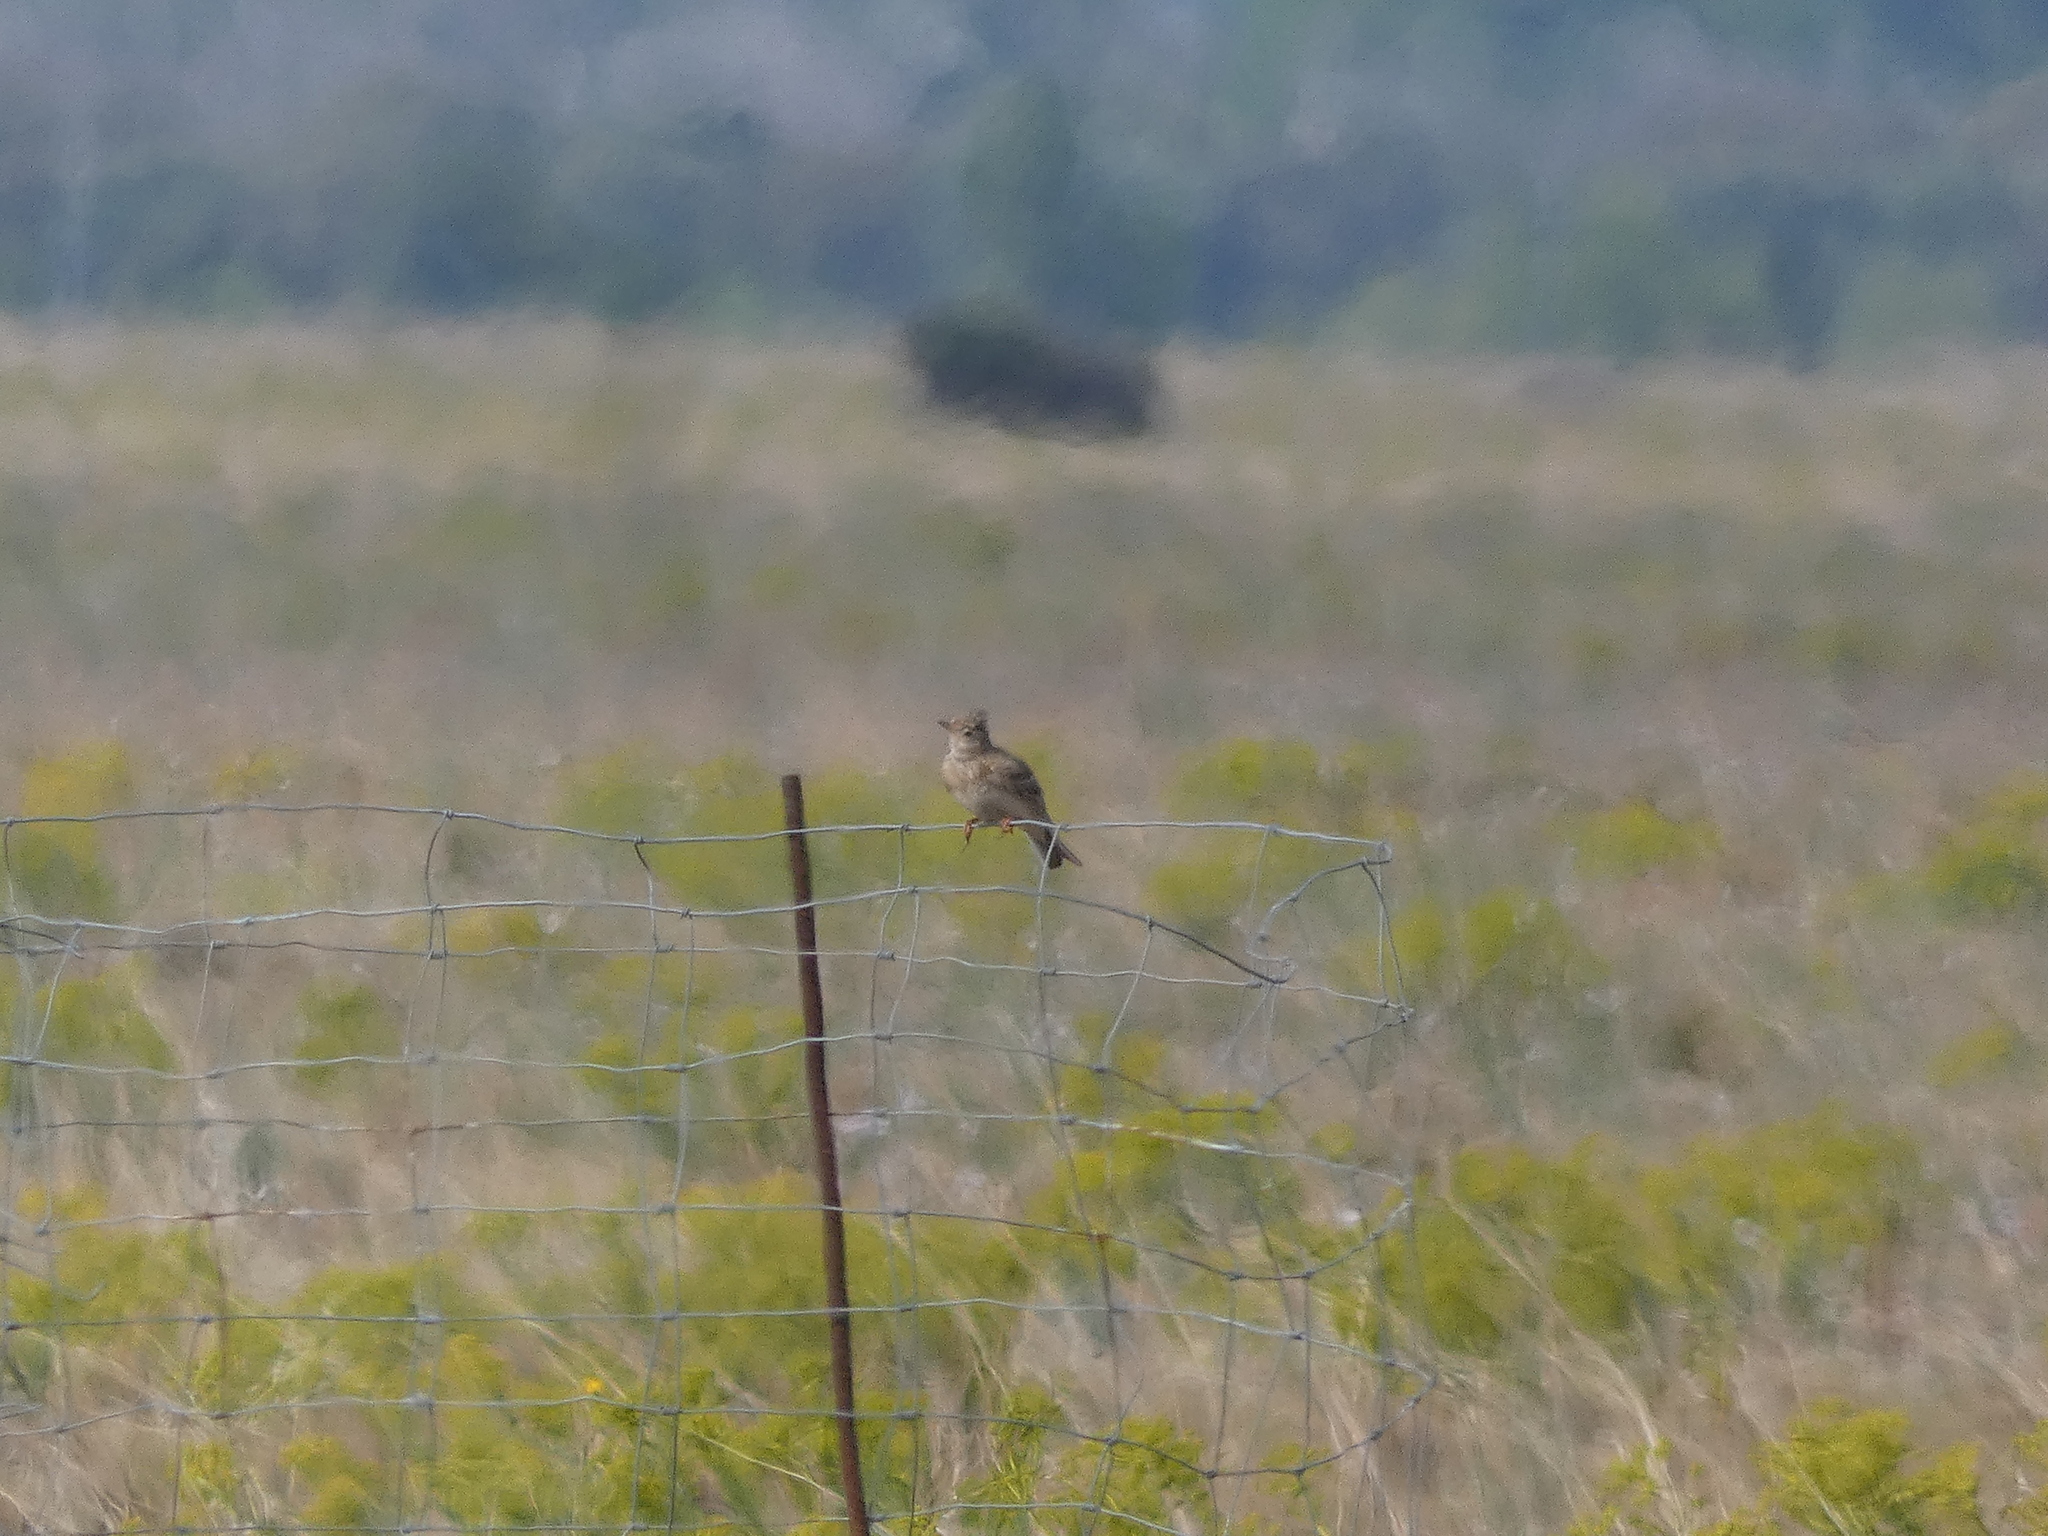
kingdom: Animalia
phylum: Chordata
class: Aves
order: Passeriformes
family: Alaudidae
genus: Galerida
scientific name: Galerida cristata
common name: Crested lark
